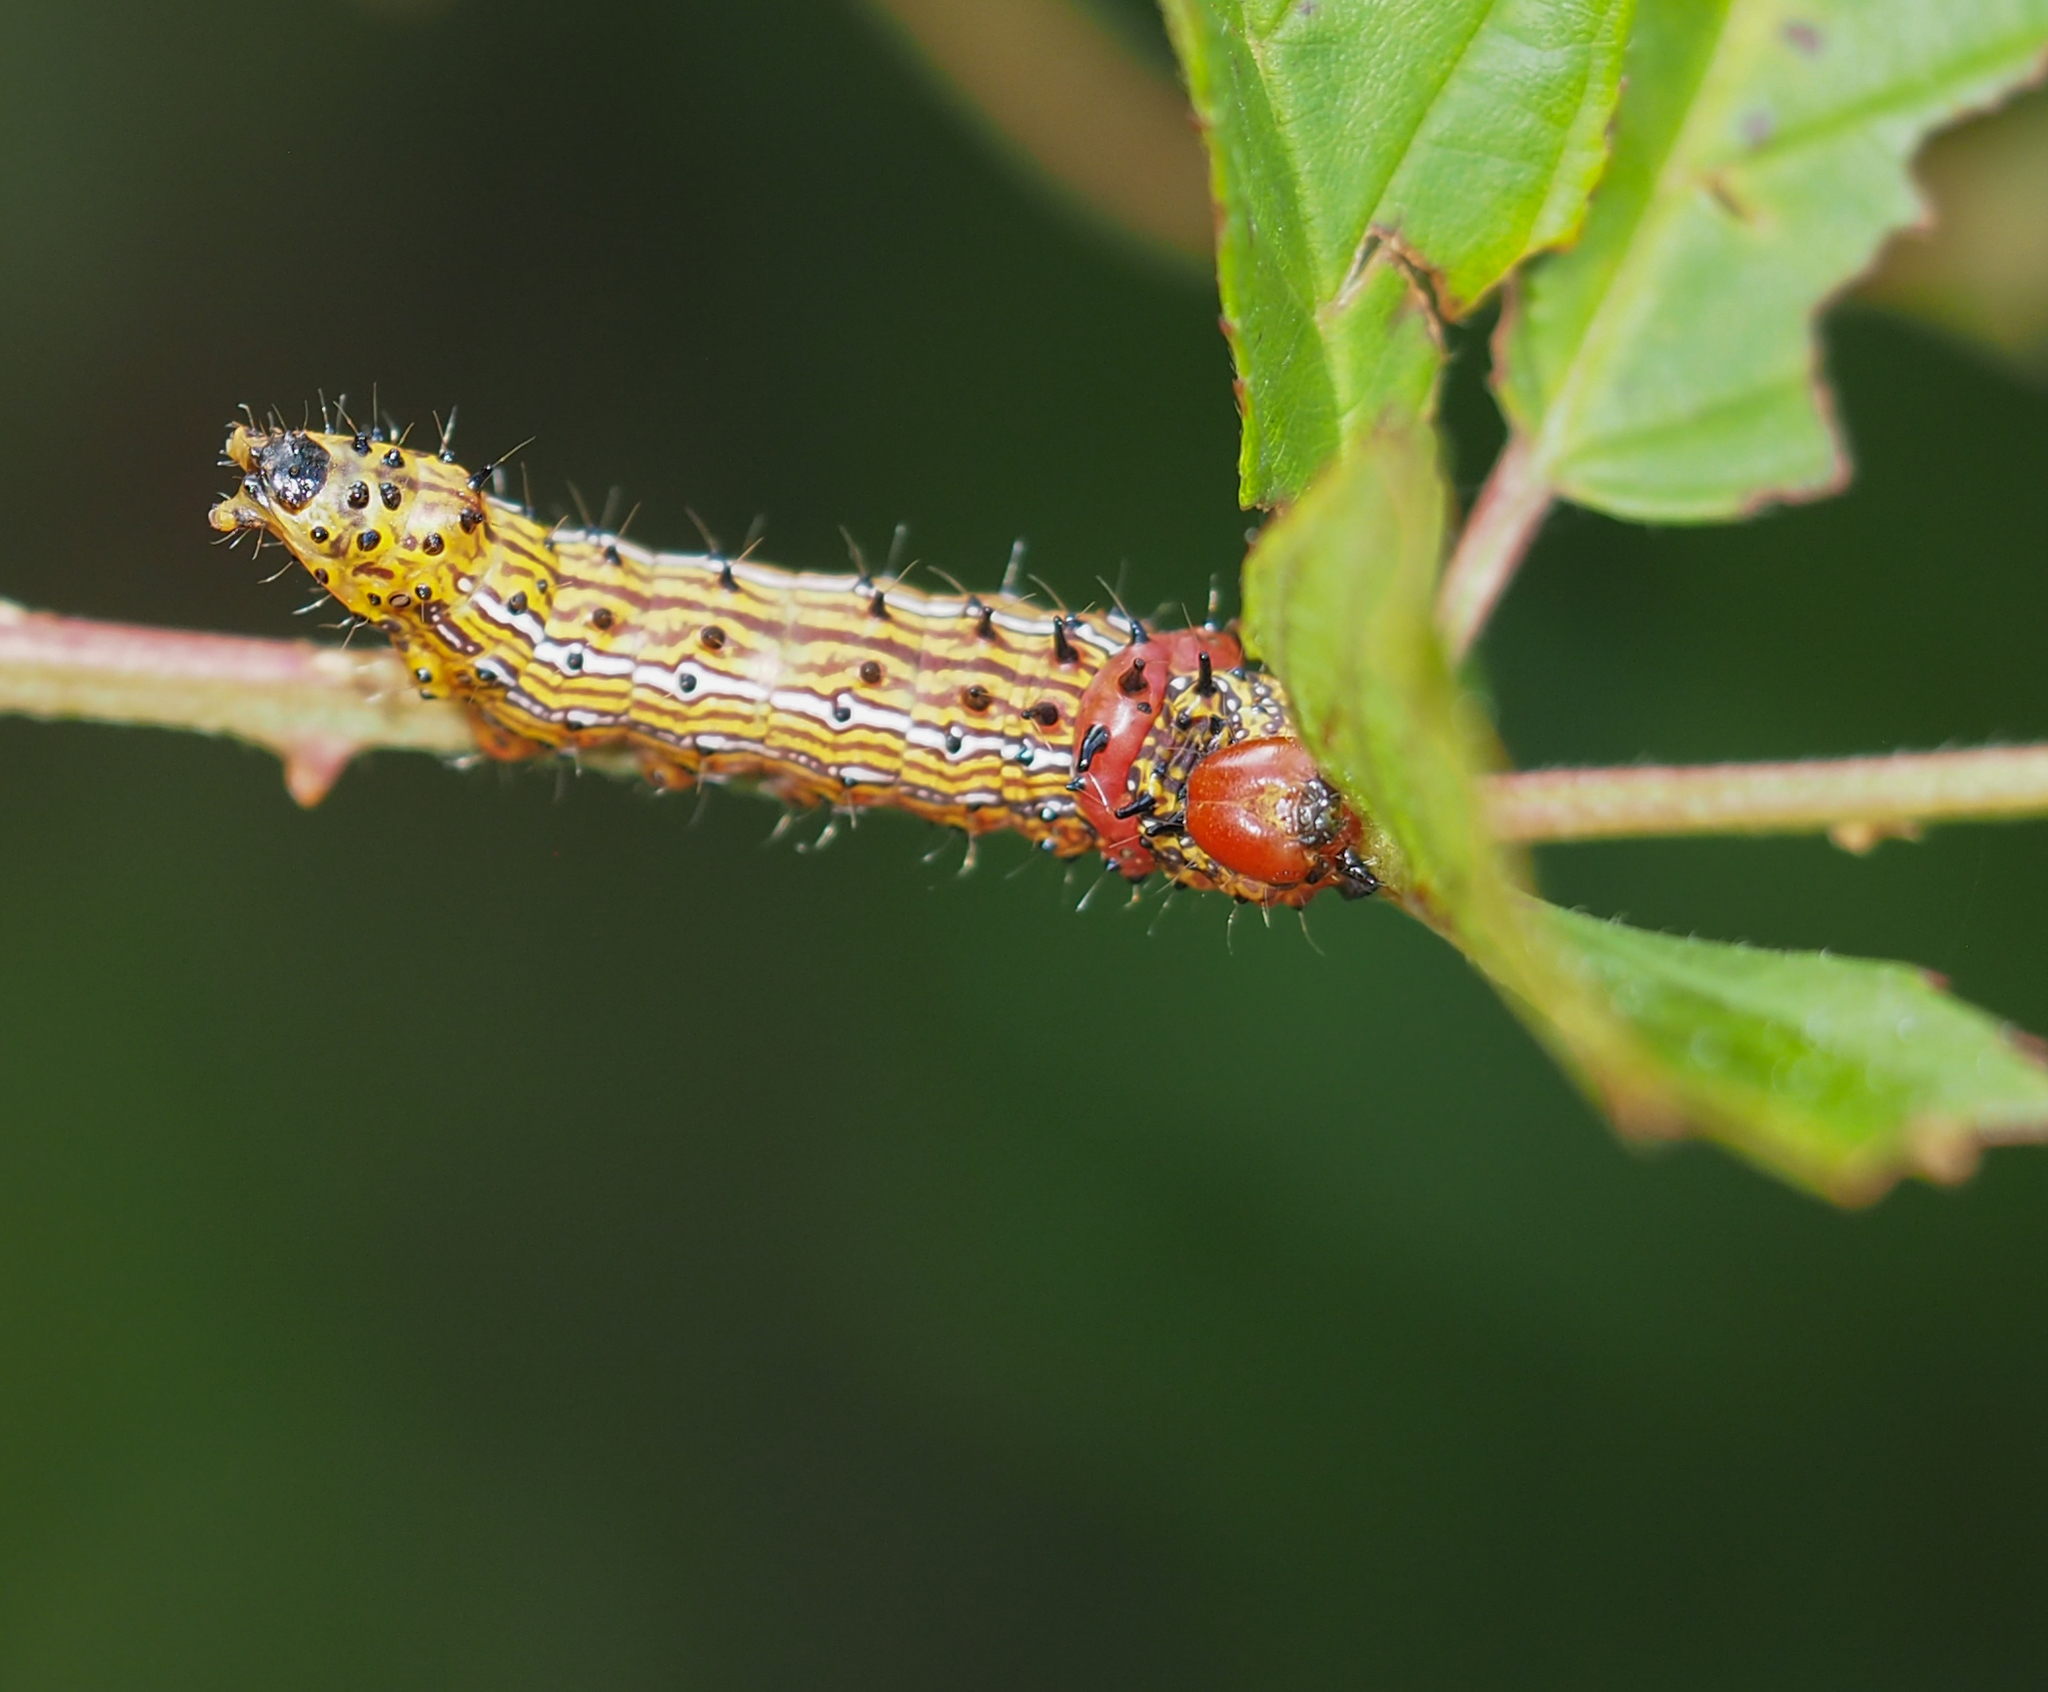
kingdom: Animalia
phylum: Arthropoda
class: Insecta
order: Lepidoptera
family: Notodontidae
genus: Schizura
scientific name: Schizura
